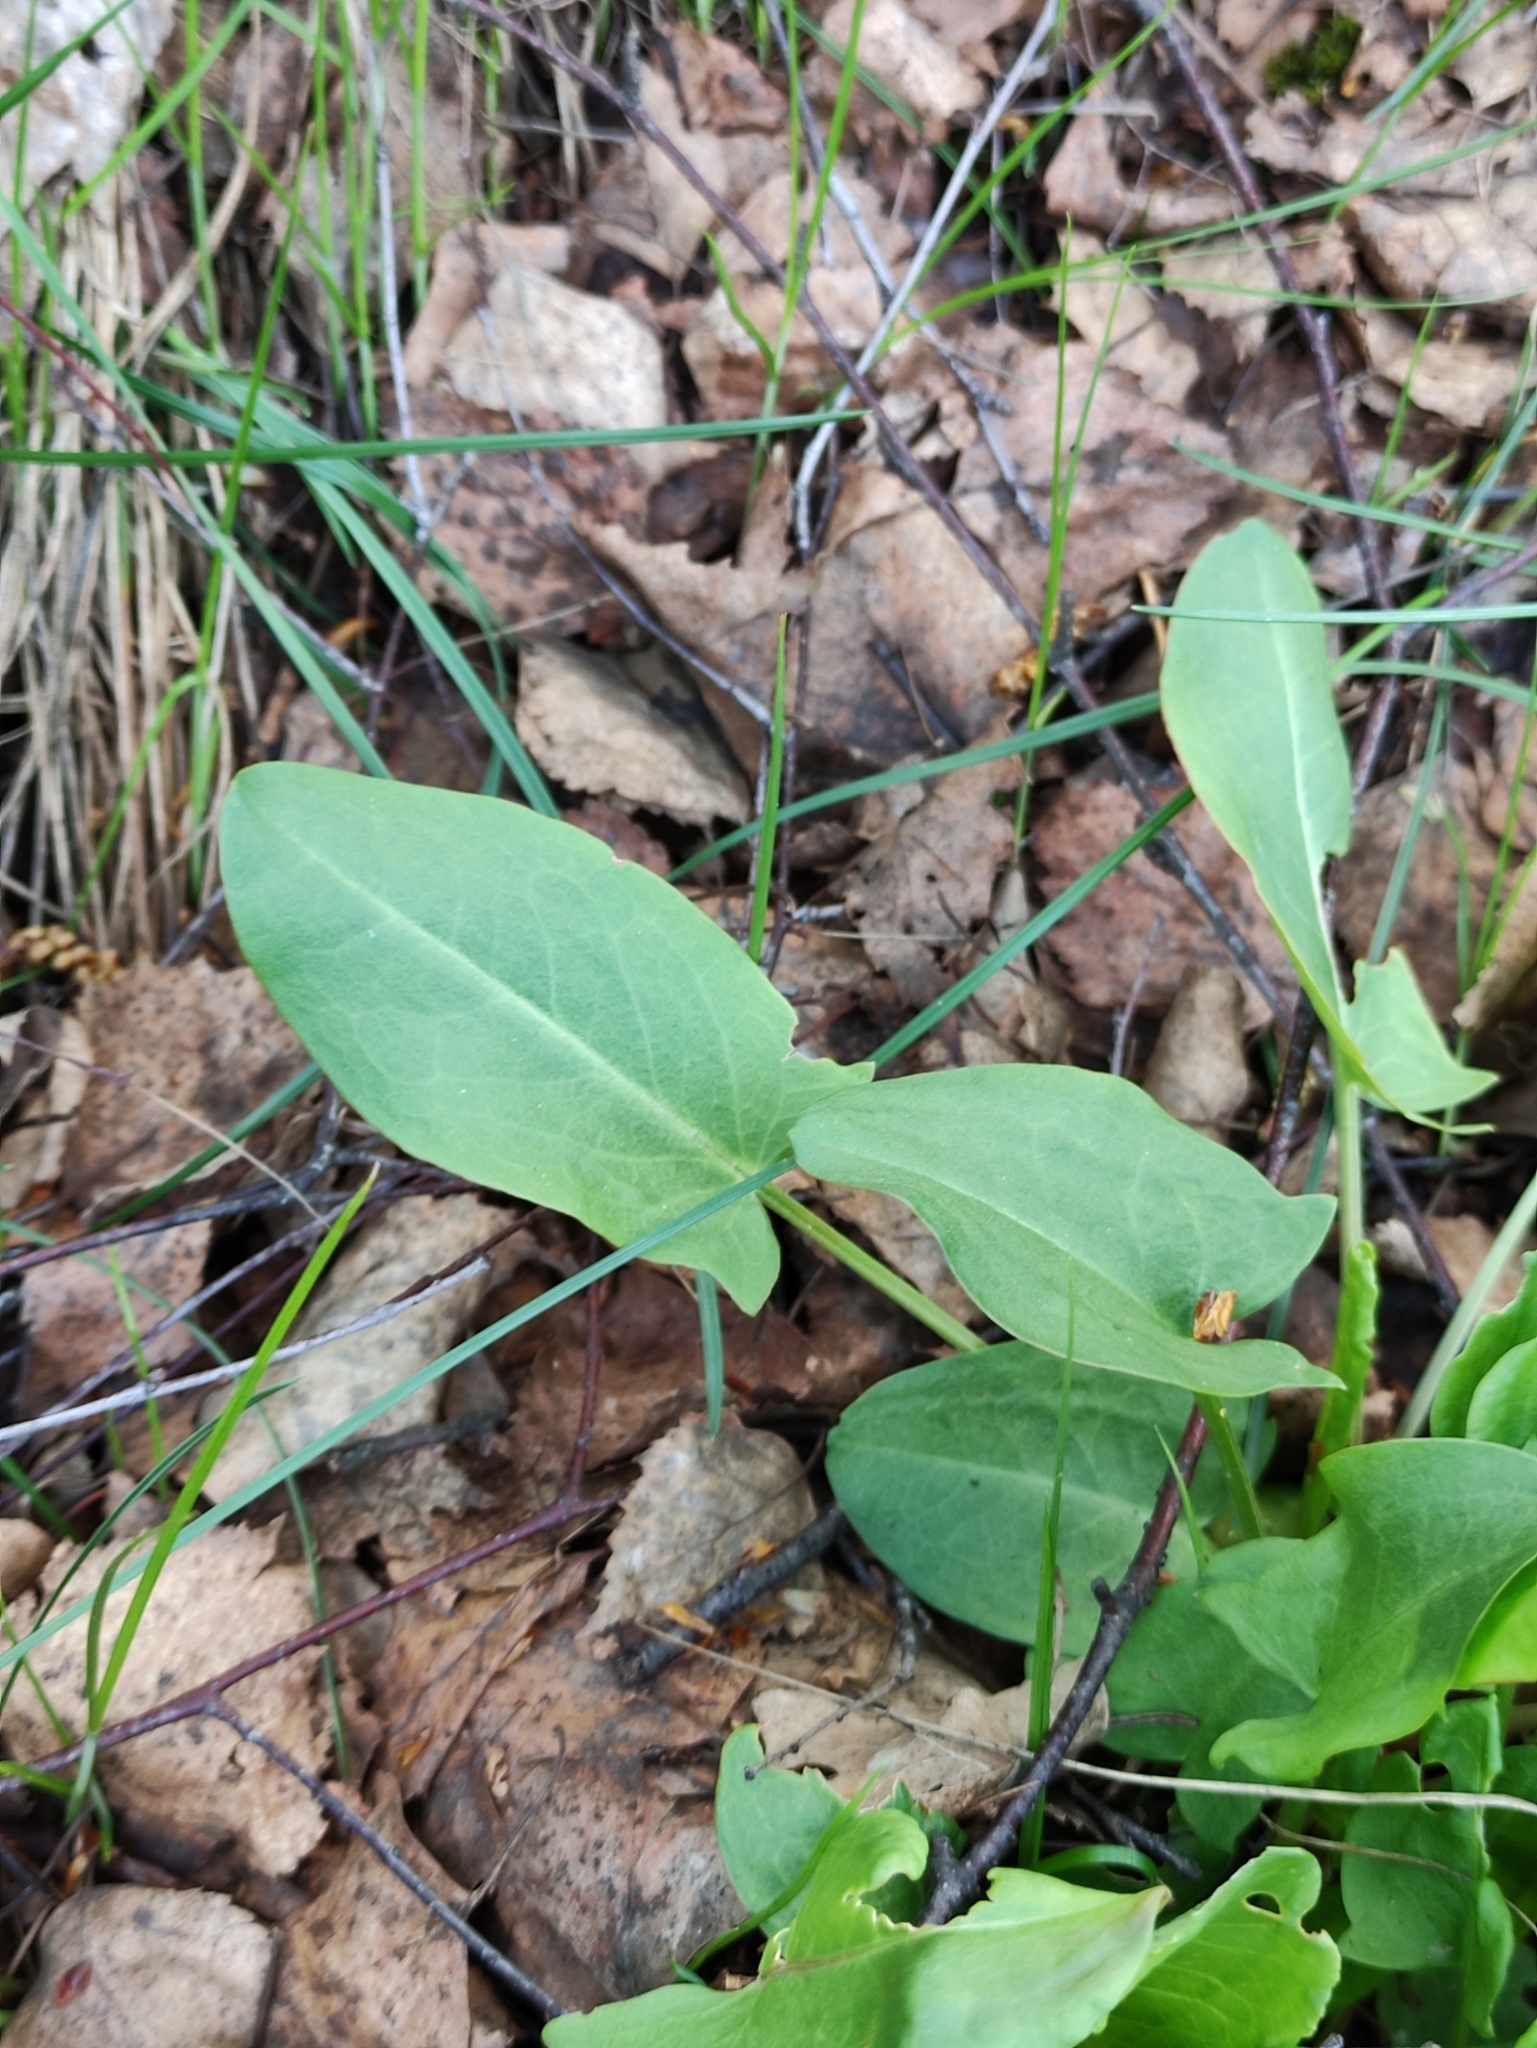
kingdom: Plantae
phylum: Tracheophyta
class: Magnoliopsida
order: Caryophyllales
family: Polygonaceae
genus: Rumex
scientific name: Rumex acetosa
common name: Garden sorrel
